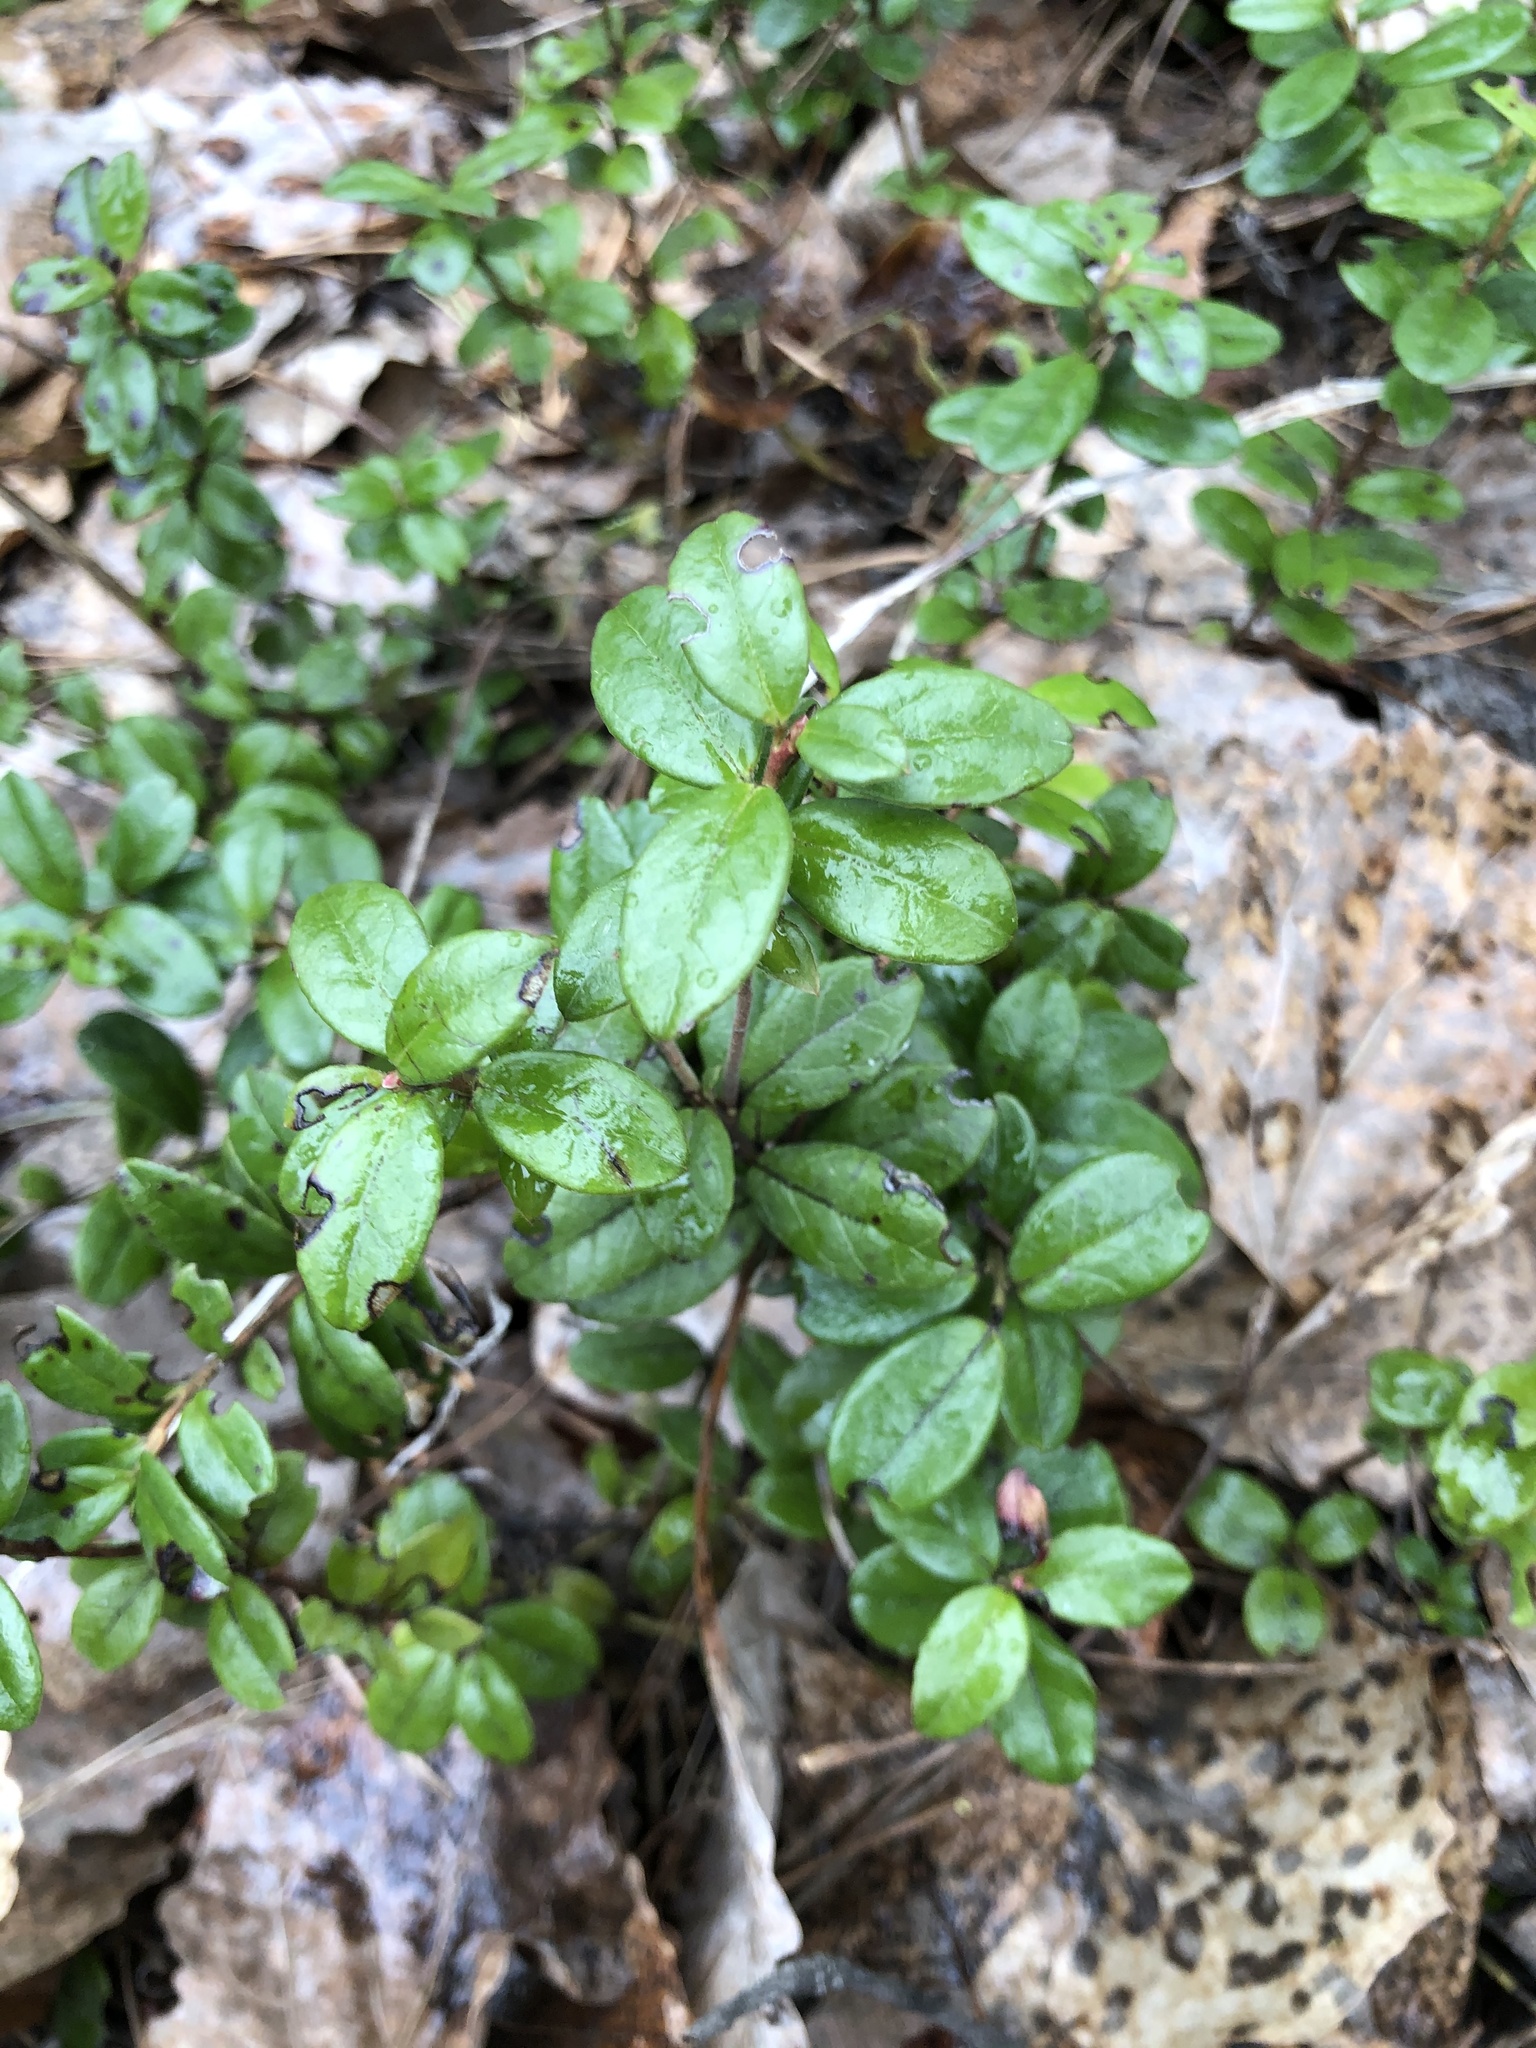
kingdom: Plantae
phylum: Tracheophyta
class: Magnoliopsida
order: Ericales
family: Ericaceae
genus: Vaccinium
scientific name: Vaccinium vitis-idaea
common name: Cowberry
